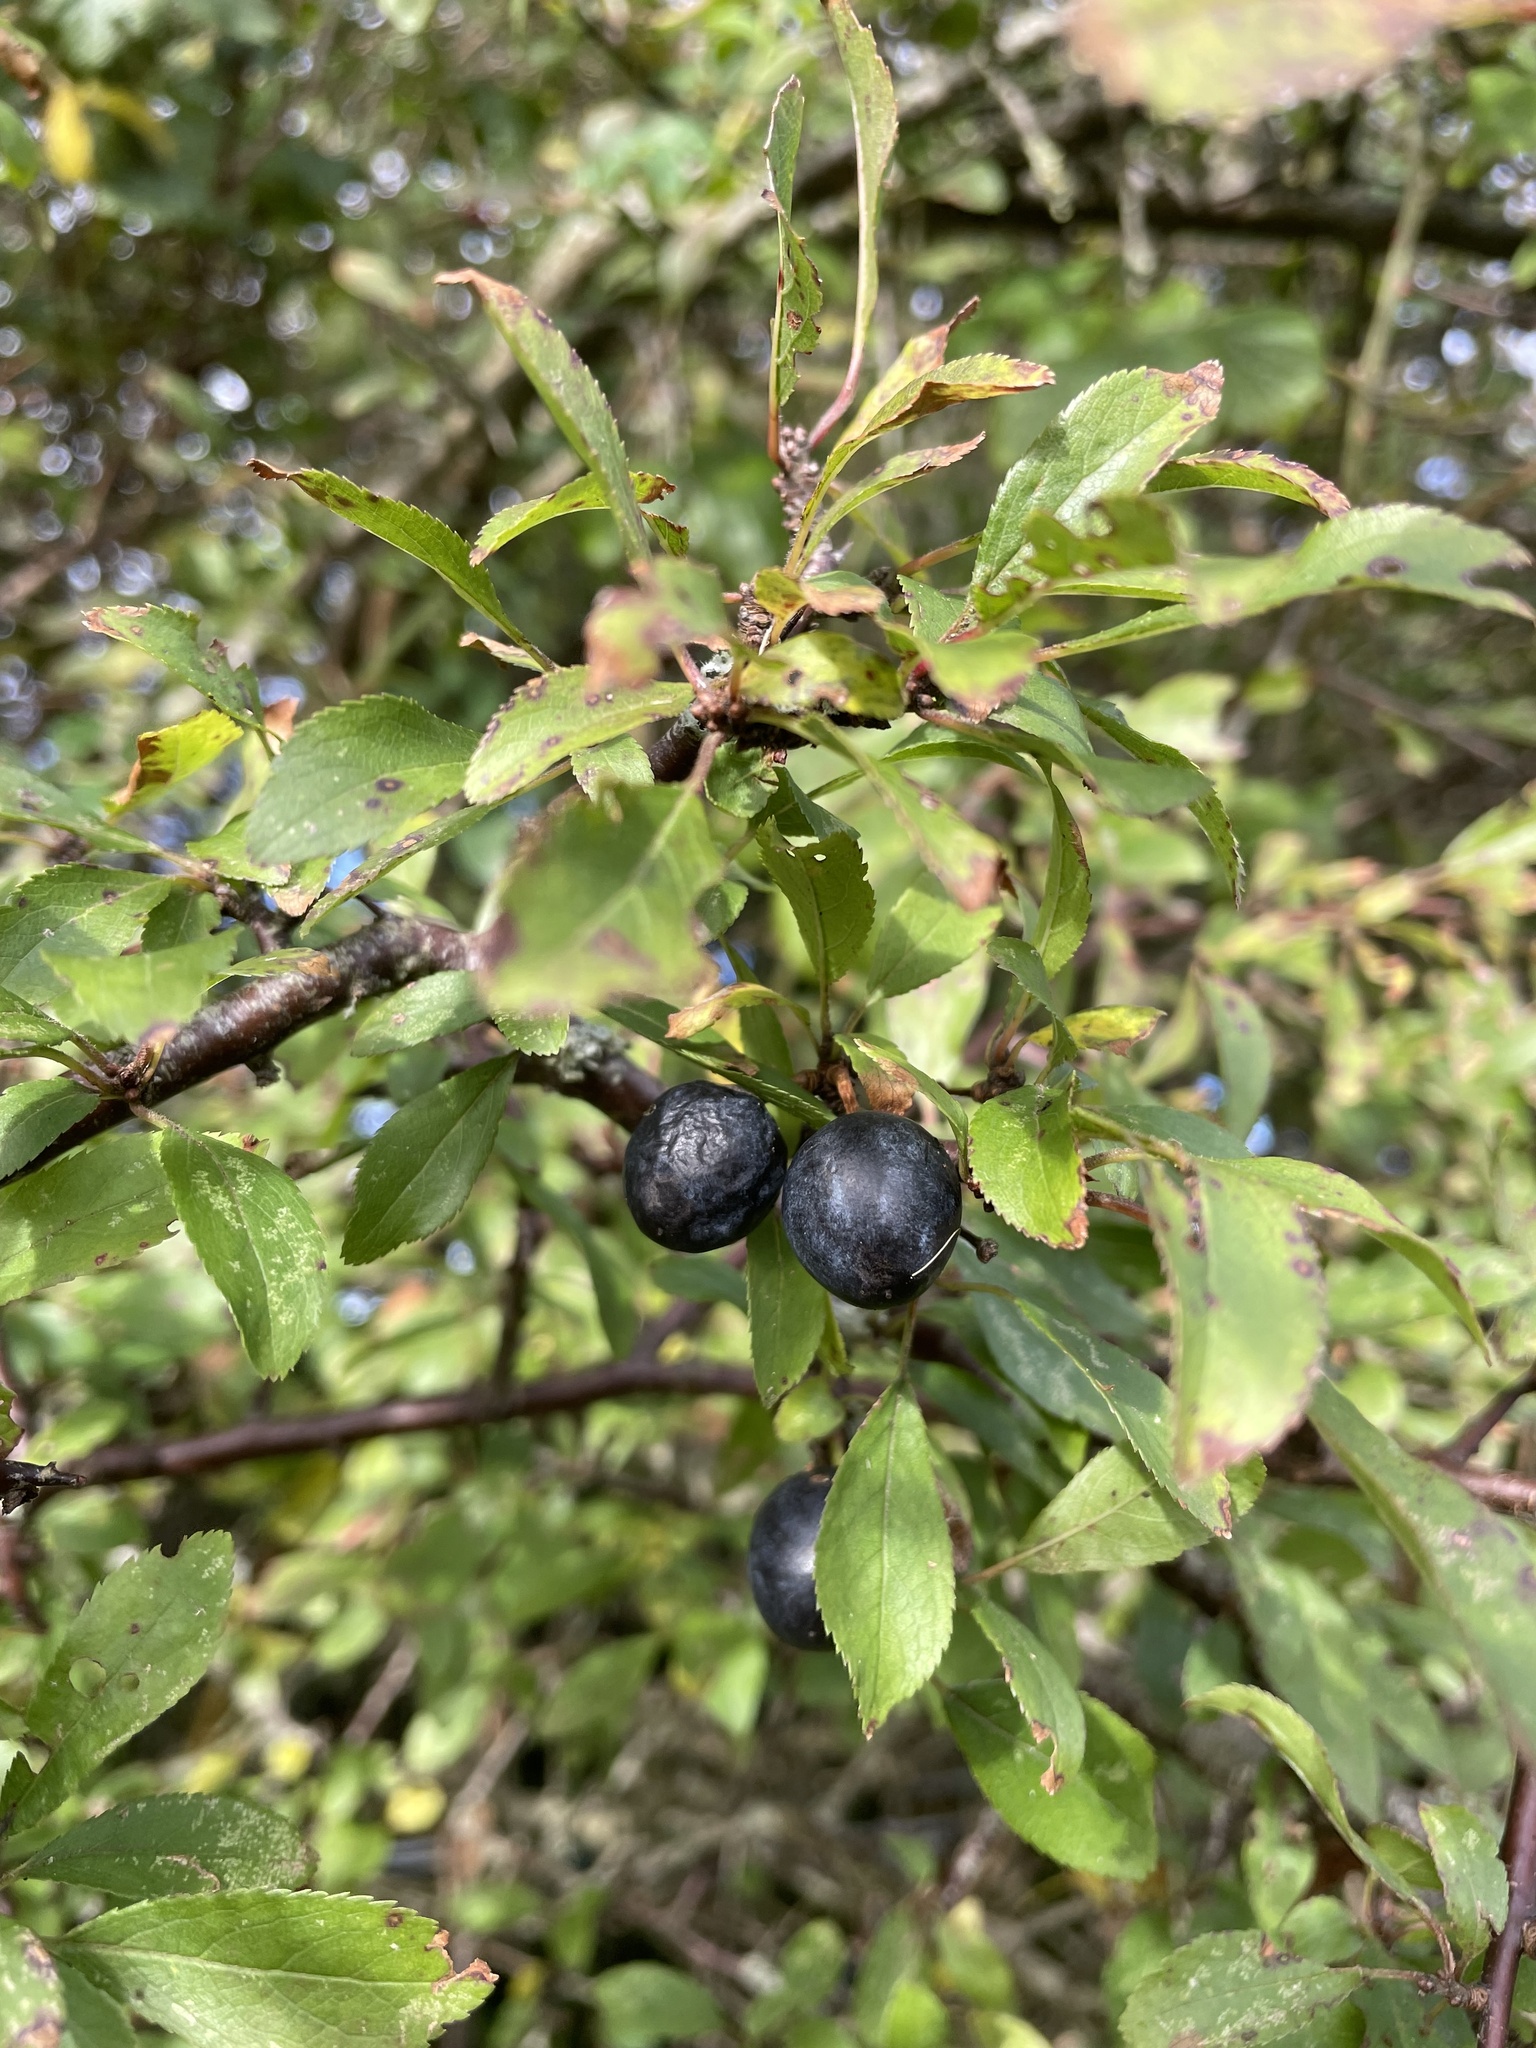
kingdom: Plantae
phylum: Tracheophyta
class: Magnoliopsida
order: Rosales
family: Rosaceae
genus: Prunus
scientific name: Prunus spinosa
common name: Blackthorn
